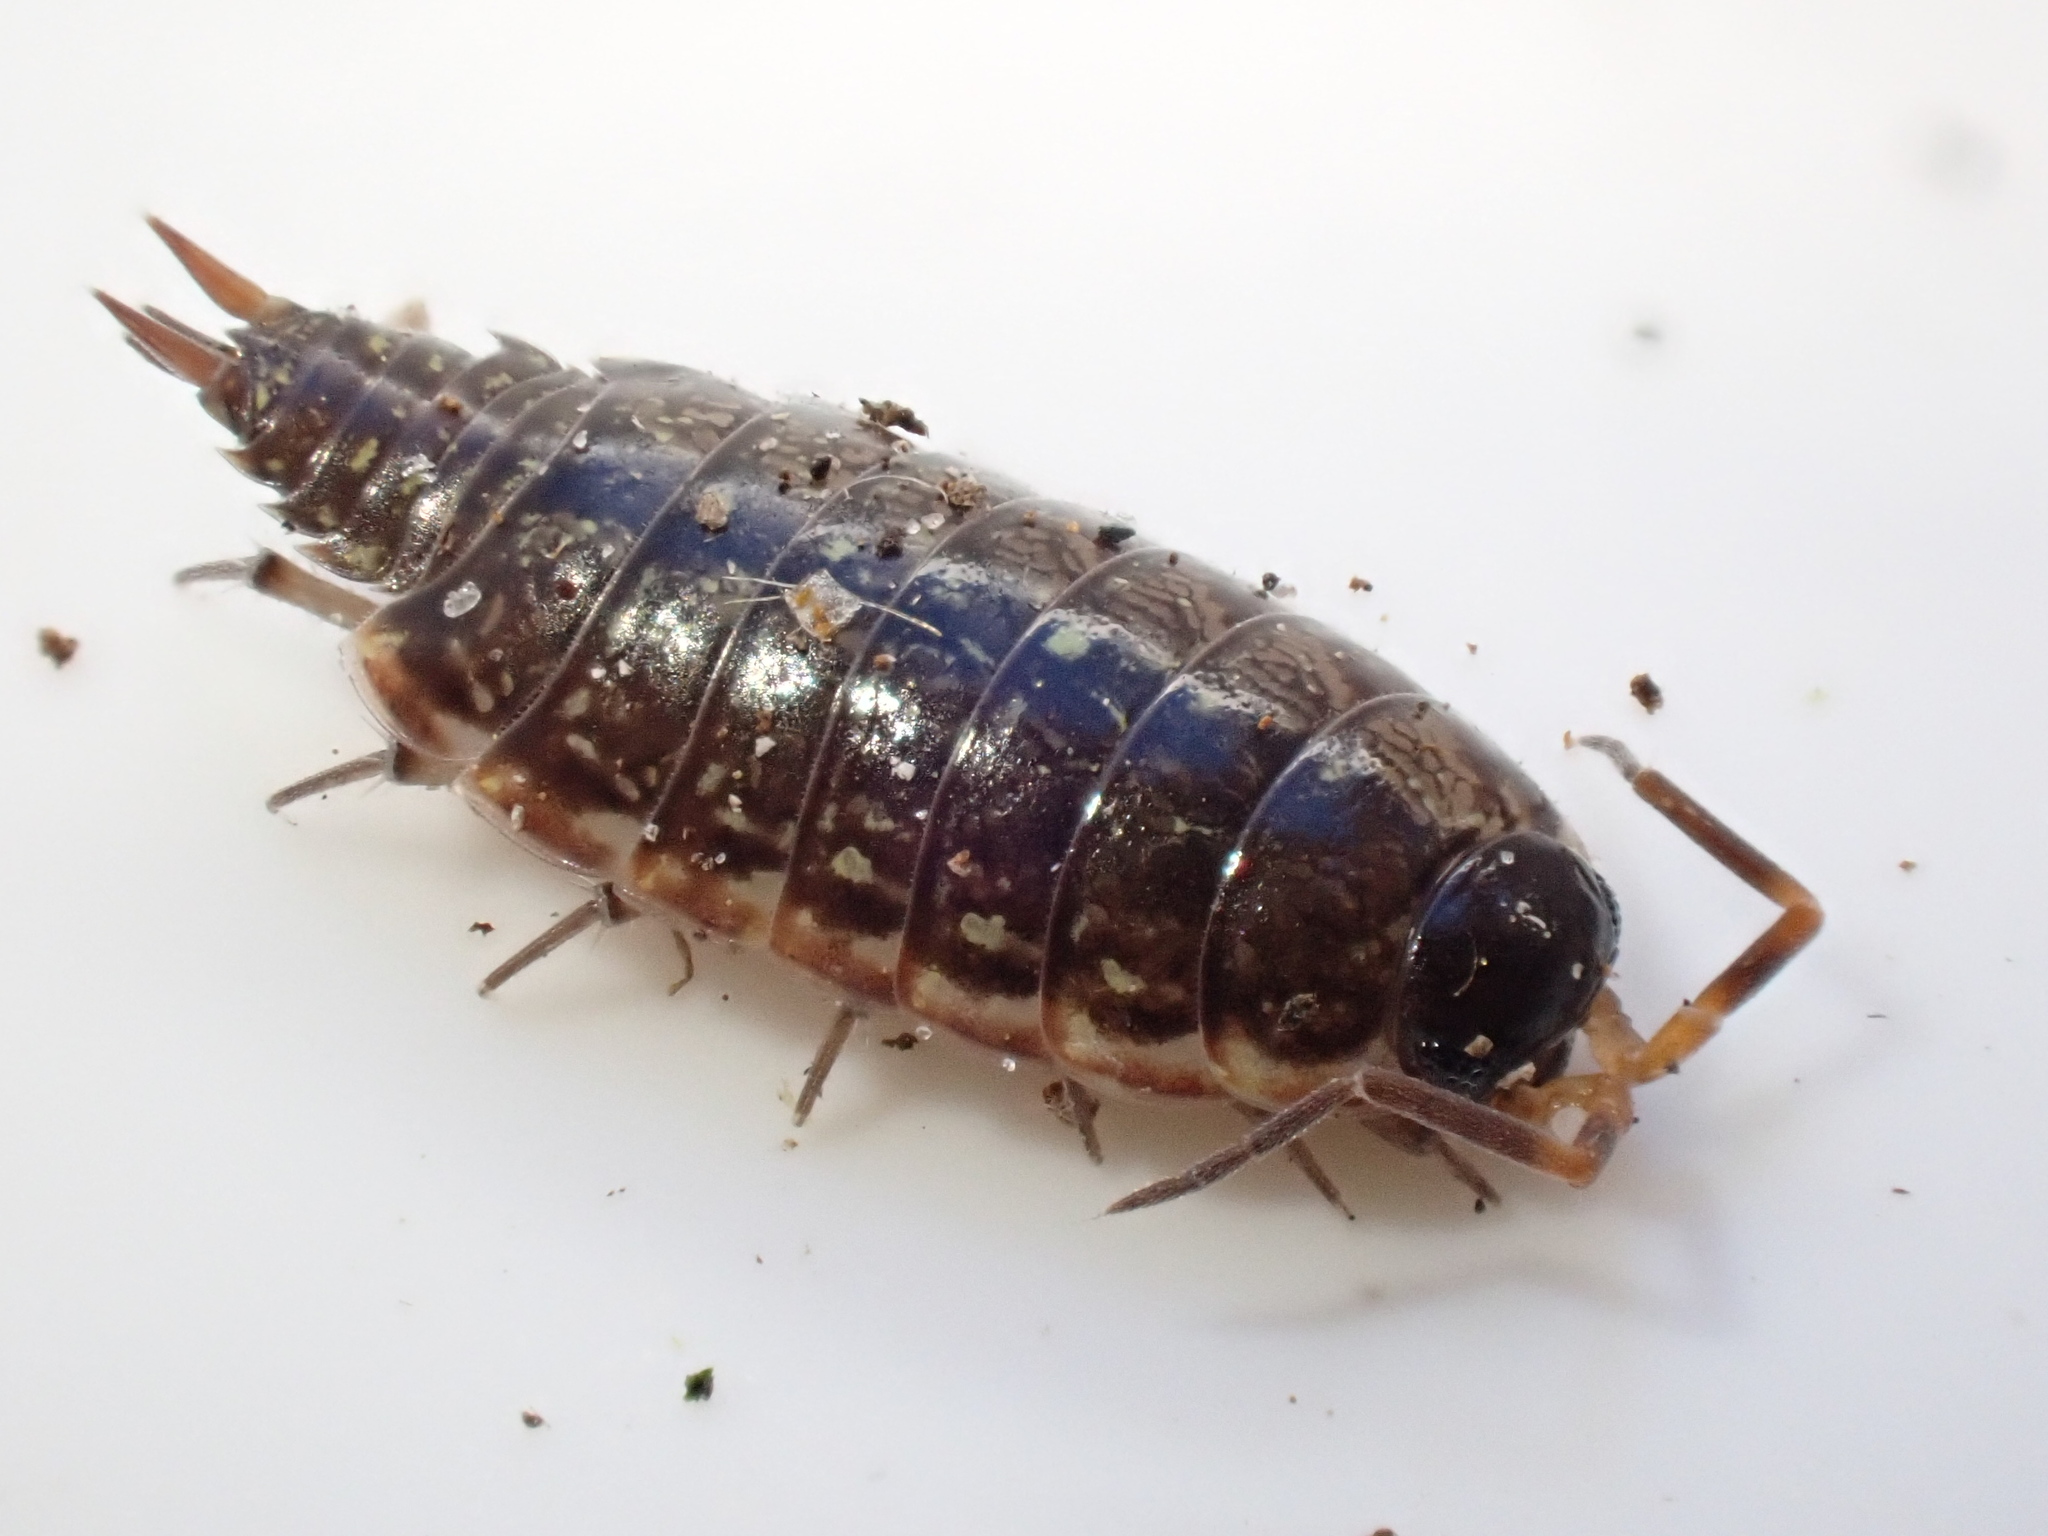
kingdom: Animalia
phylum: Arthropoda
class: Malacostraca
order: Isopoda
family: Philosciidae
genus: Philoscia
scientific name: Philoscia muscorum
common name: Common striped woodlouse
